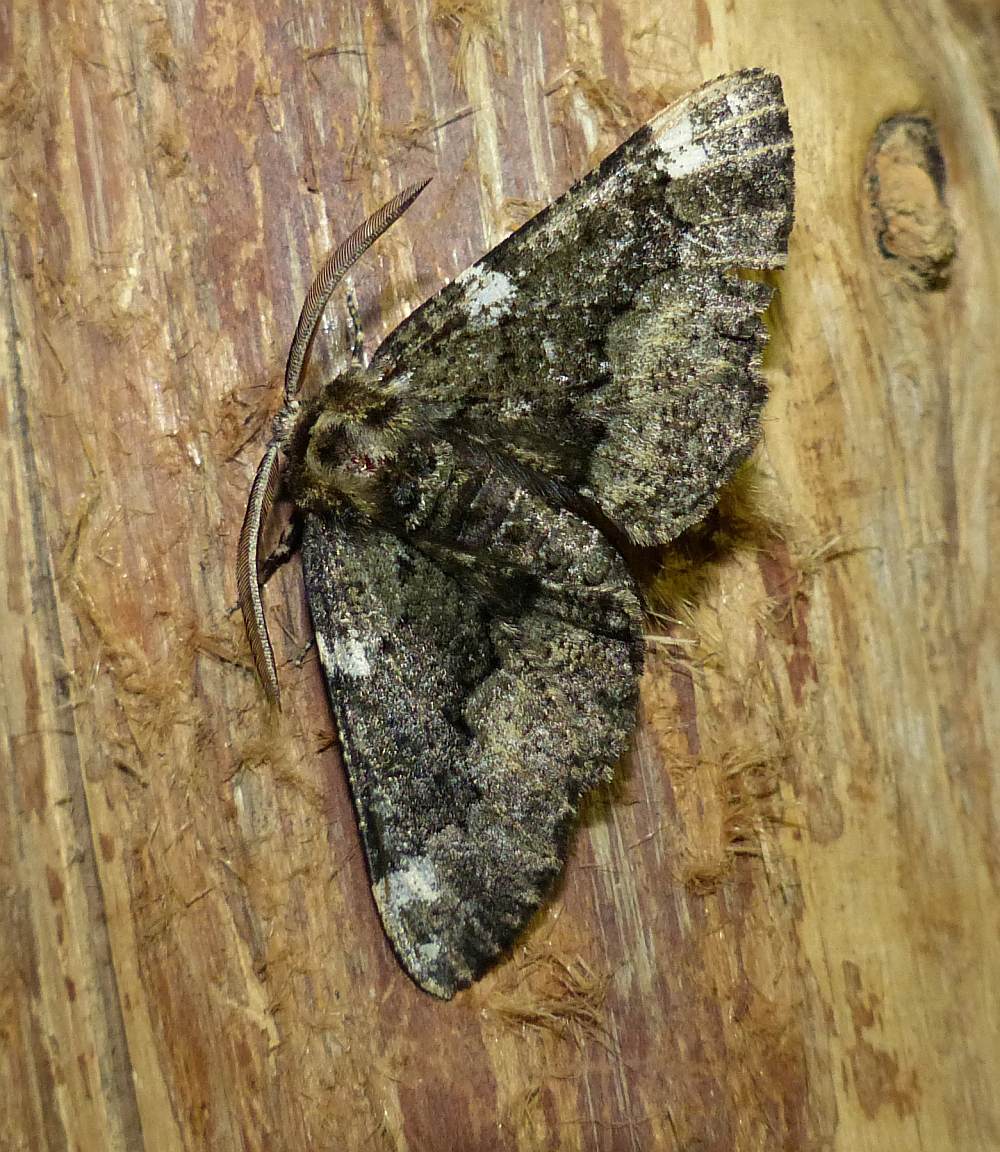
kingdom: Animalia
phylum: Arthropoda
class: Insecta
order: Lepidoptera
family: Geometridae
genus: Phaeoura
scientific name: Phaeoura quernaria
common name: Oak beauty
